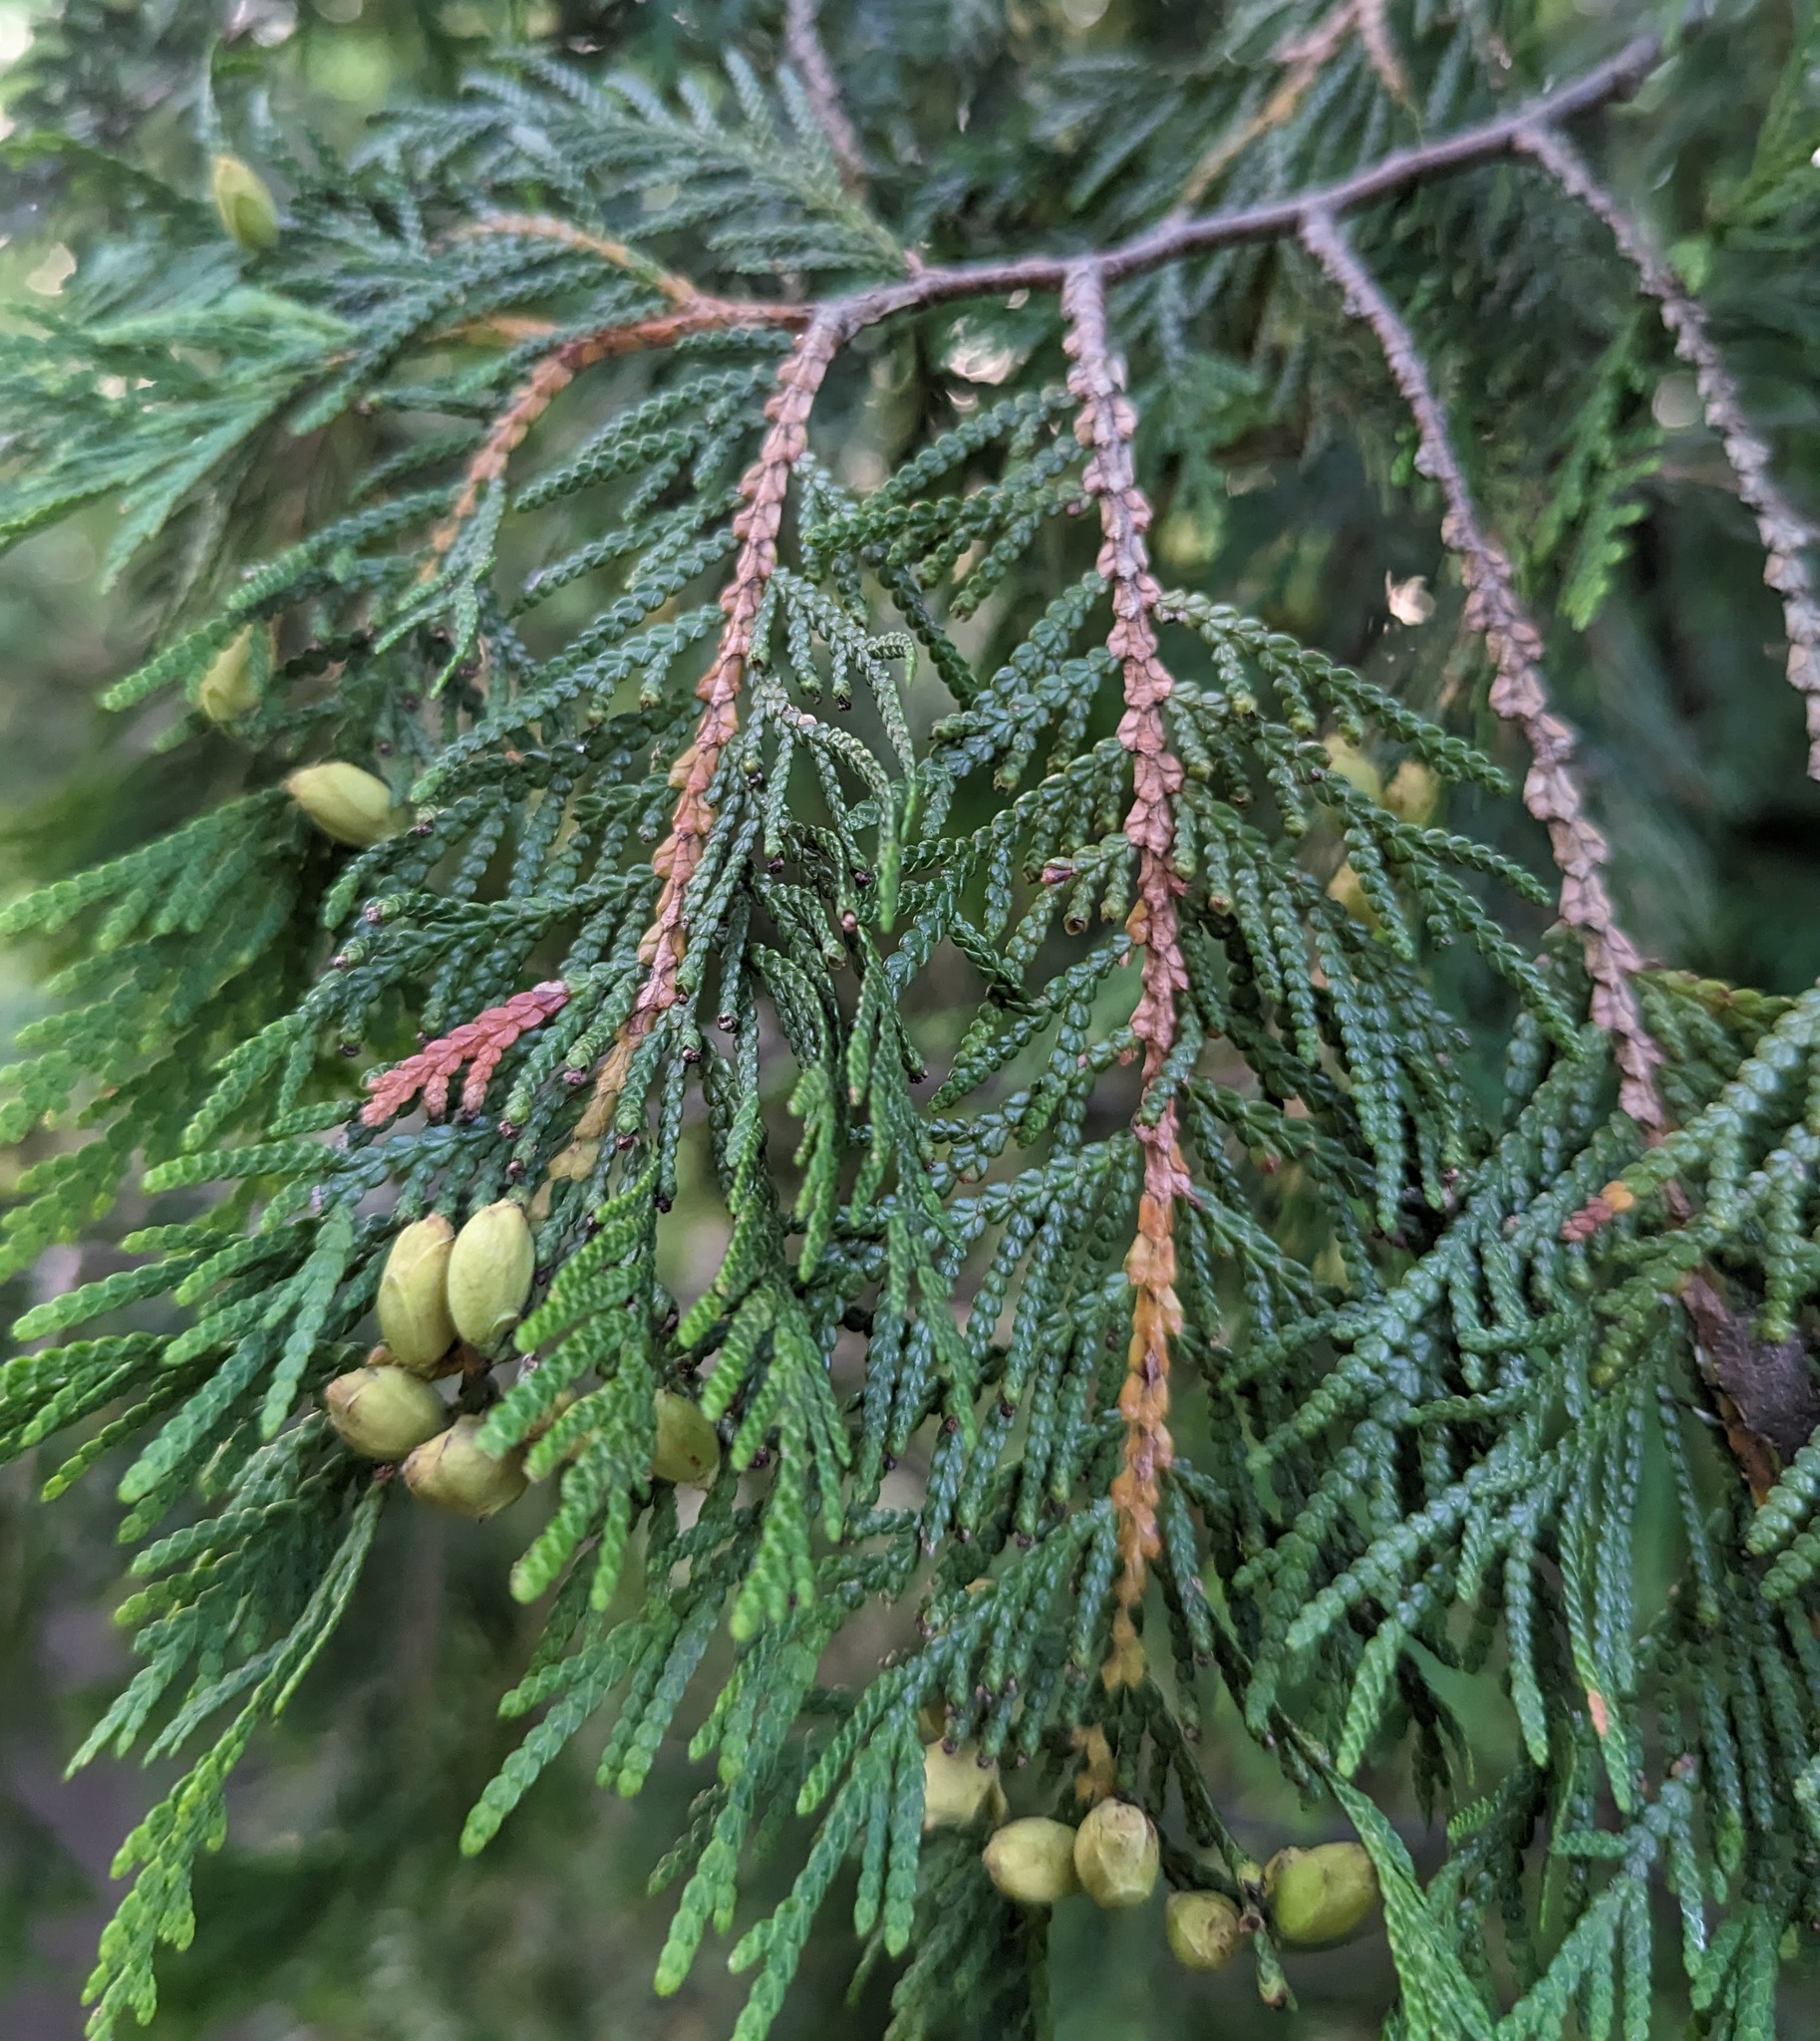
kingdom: Plantae
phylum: Tracheophyta
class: Pinopsida
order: Pinales
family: Cupressaceae
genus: Thuja
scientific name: Thuja occidentalis
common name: Northern white-cedar
